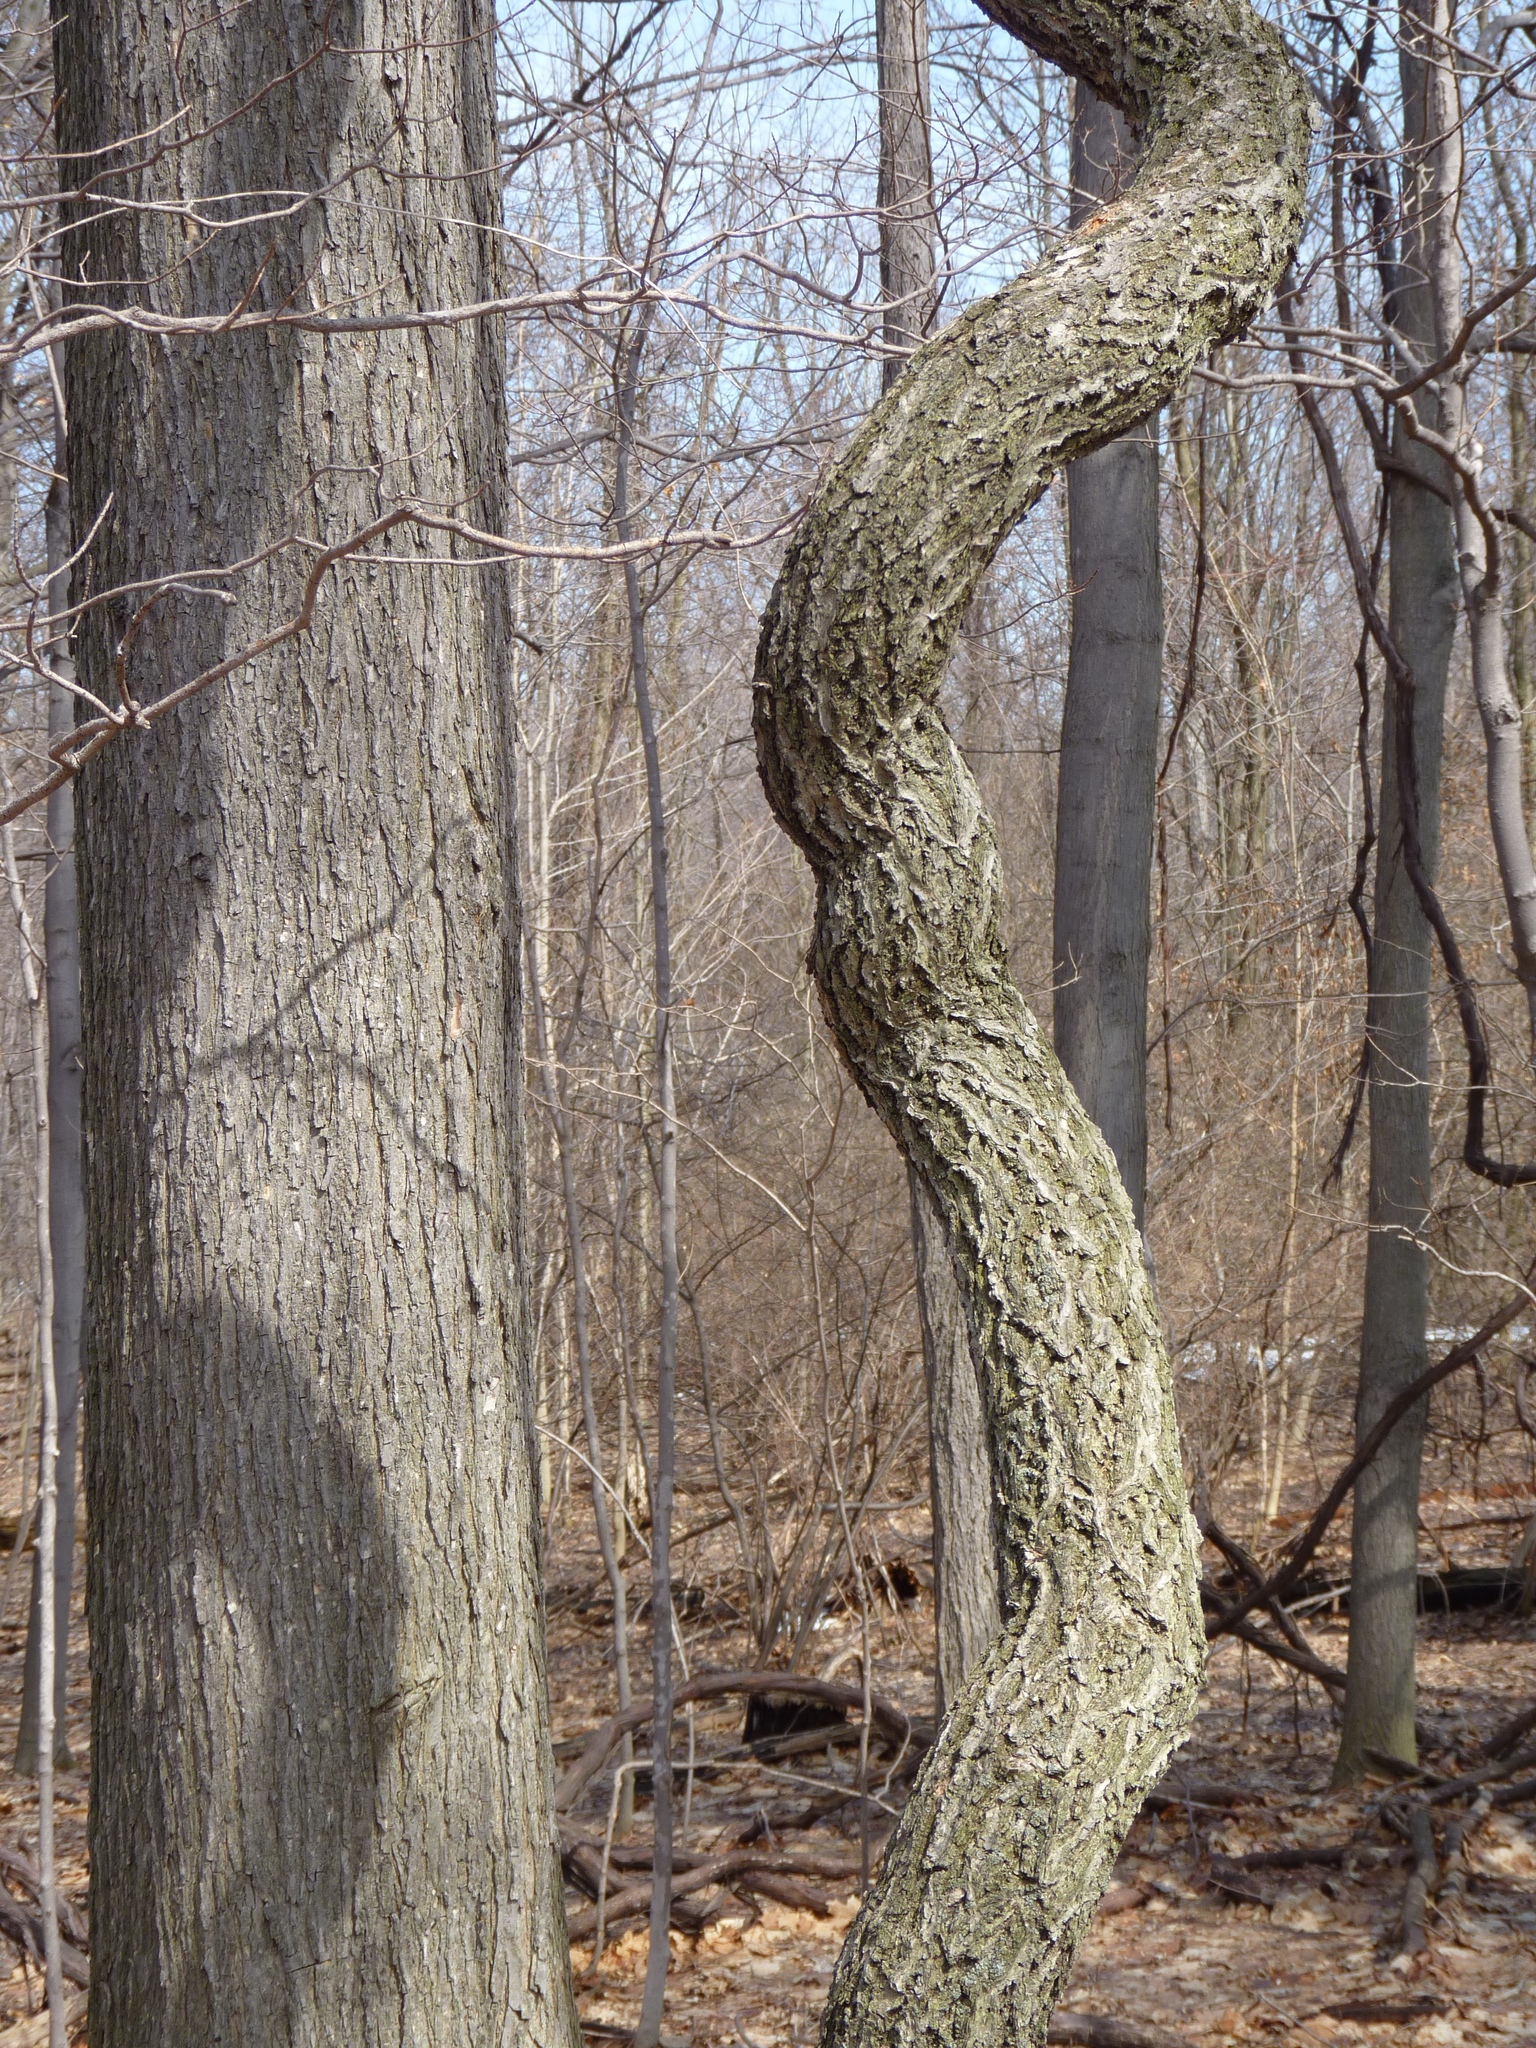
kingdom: Plantae
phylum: Tracheophyta
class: Magnoliopsida
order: Celastrales
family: Celastraceae
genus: Celastrus
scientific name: Celastrus orbiculatus
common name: Oriental bittersweet
